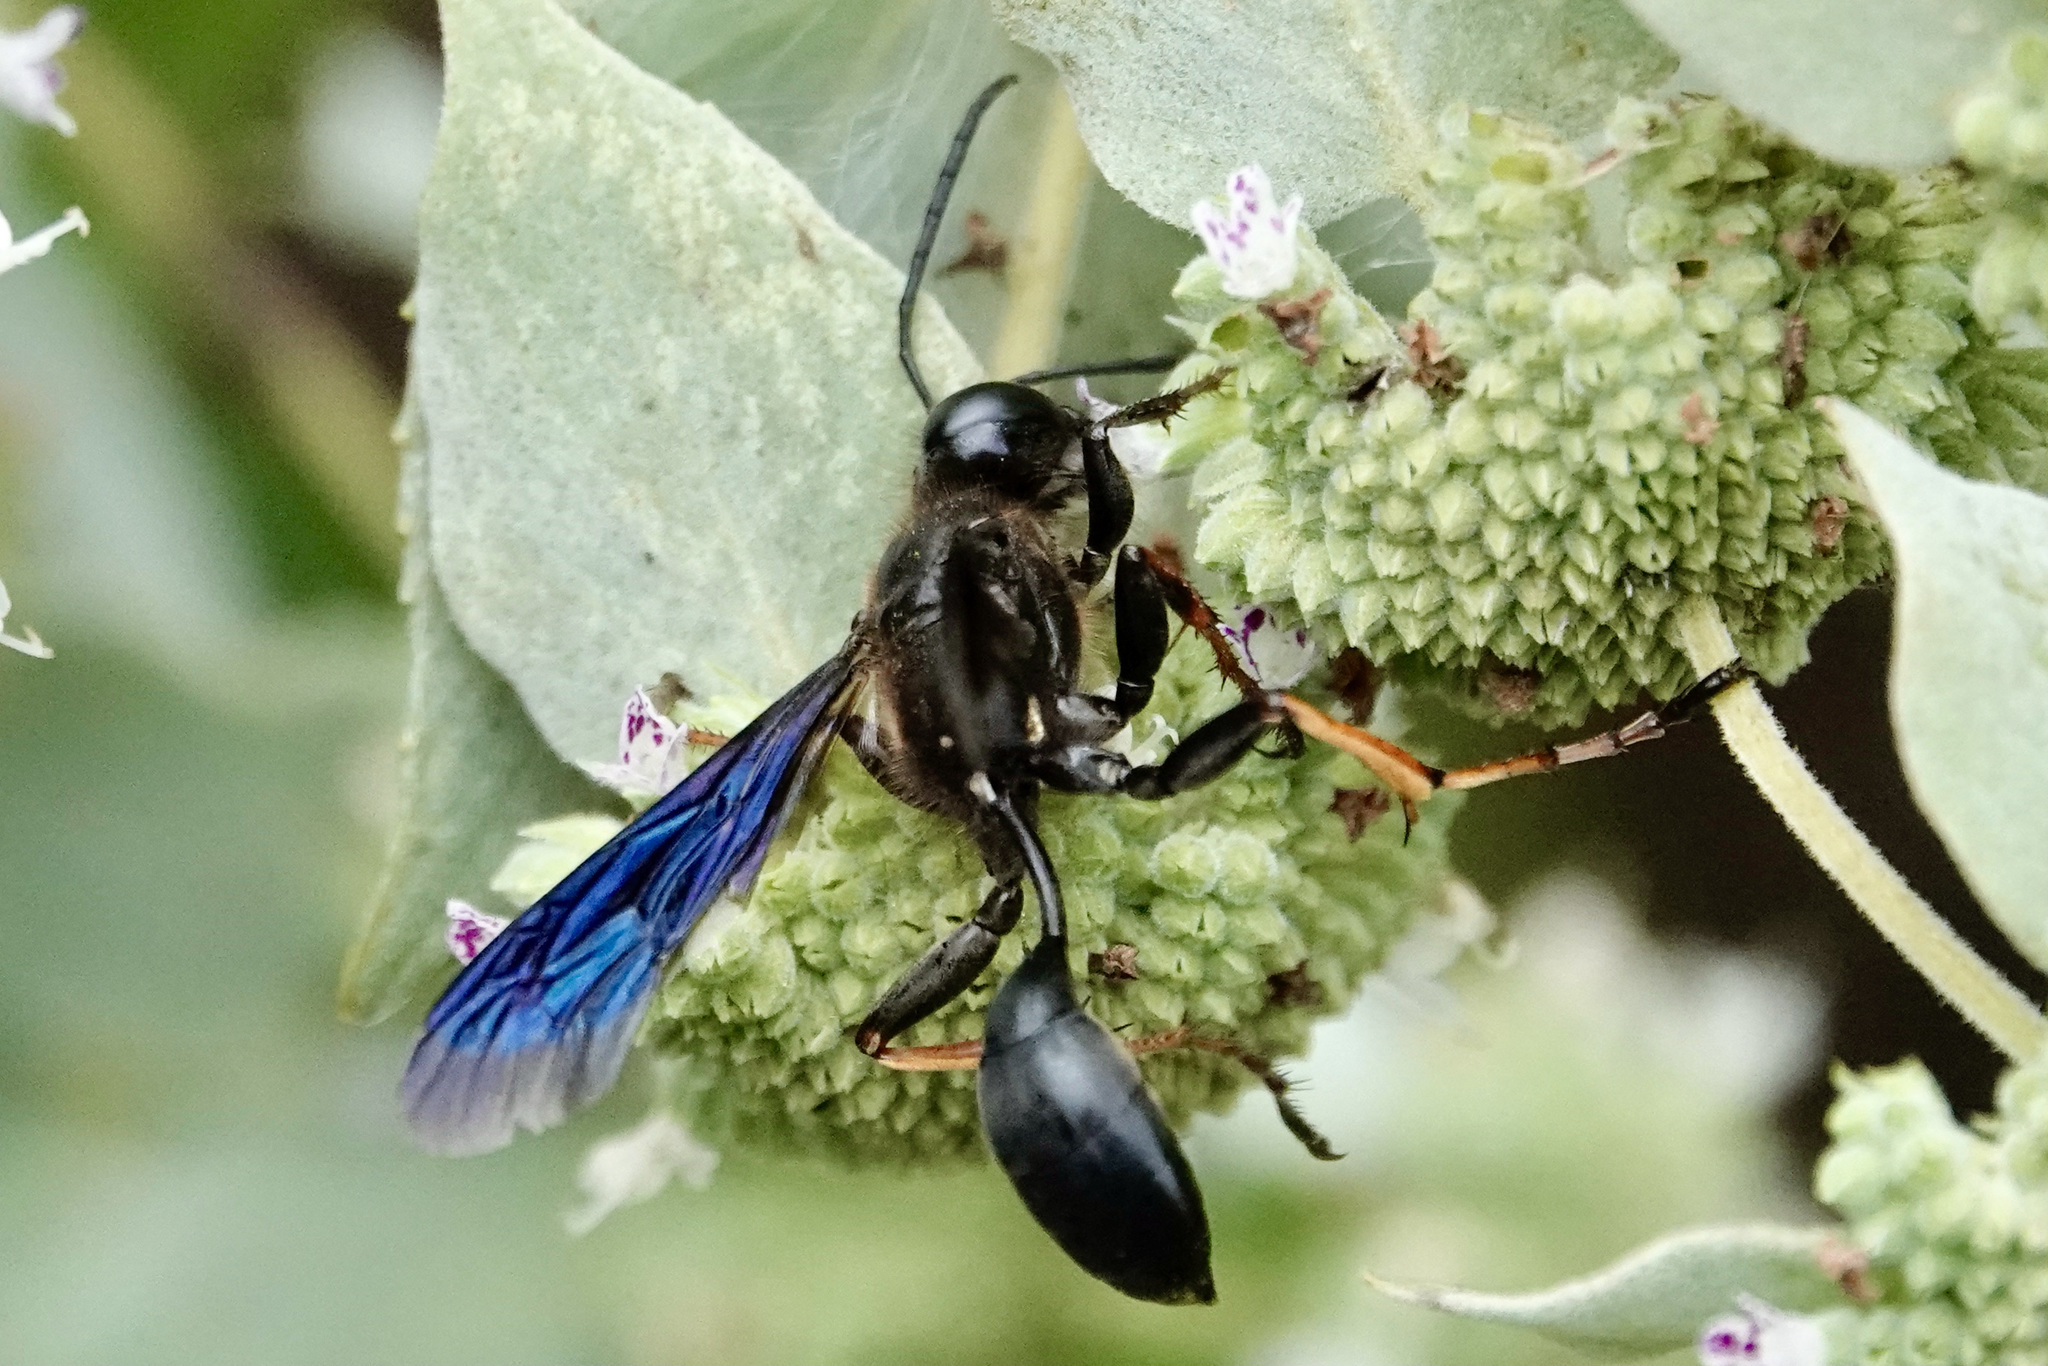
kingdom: Animalia
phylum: Arthropoda
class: Insecta
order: Hymenoptera
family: Sphecidae
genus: Isodontia
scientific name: Isodontia auripes
